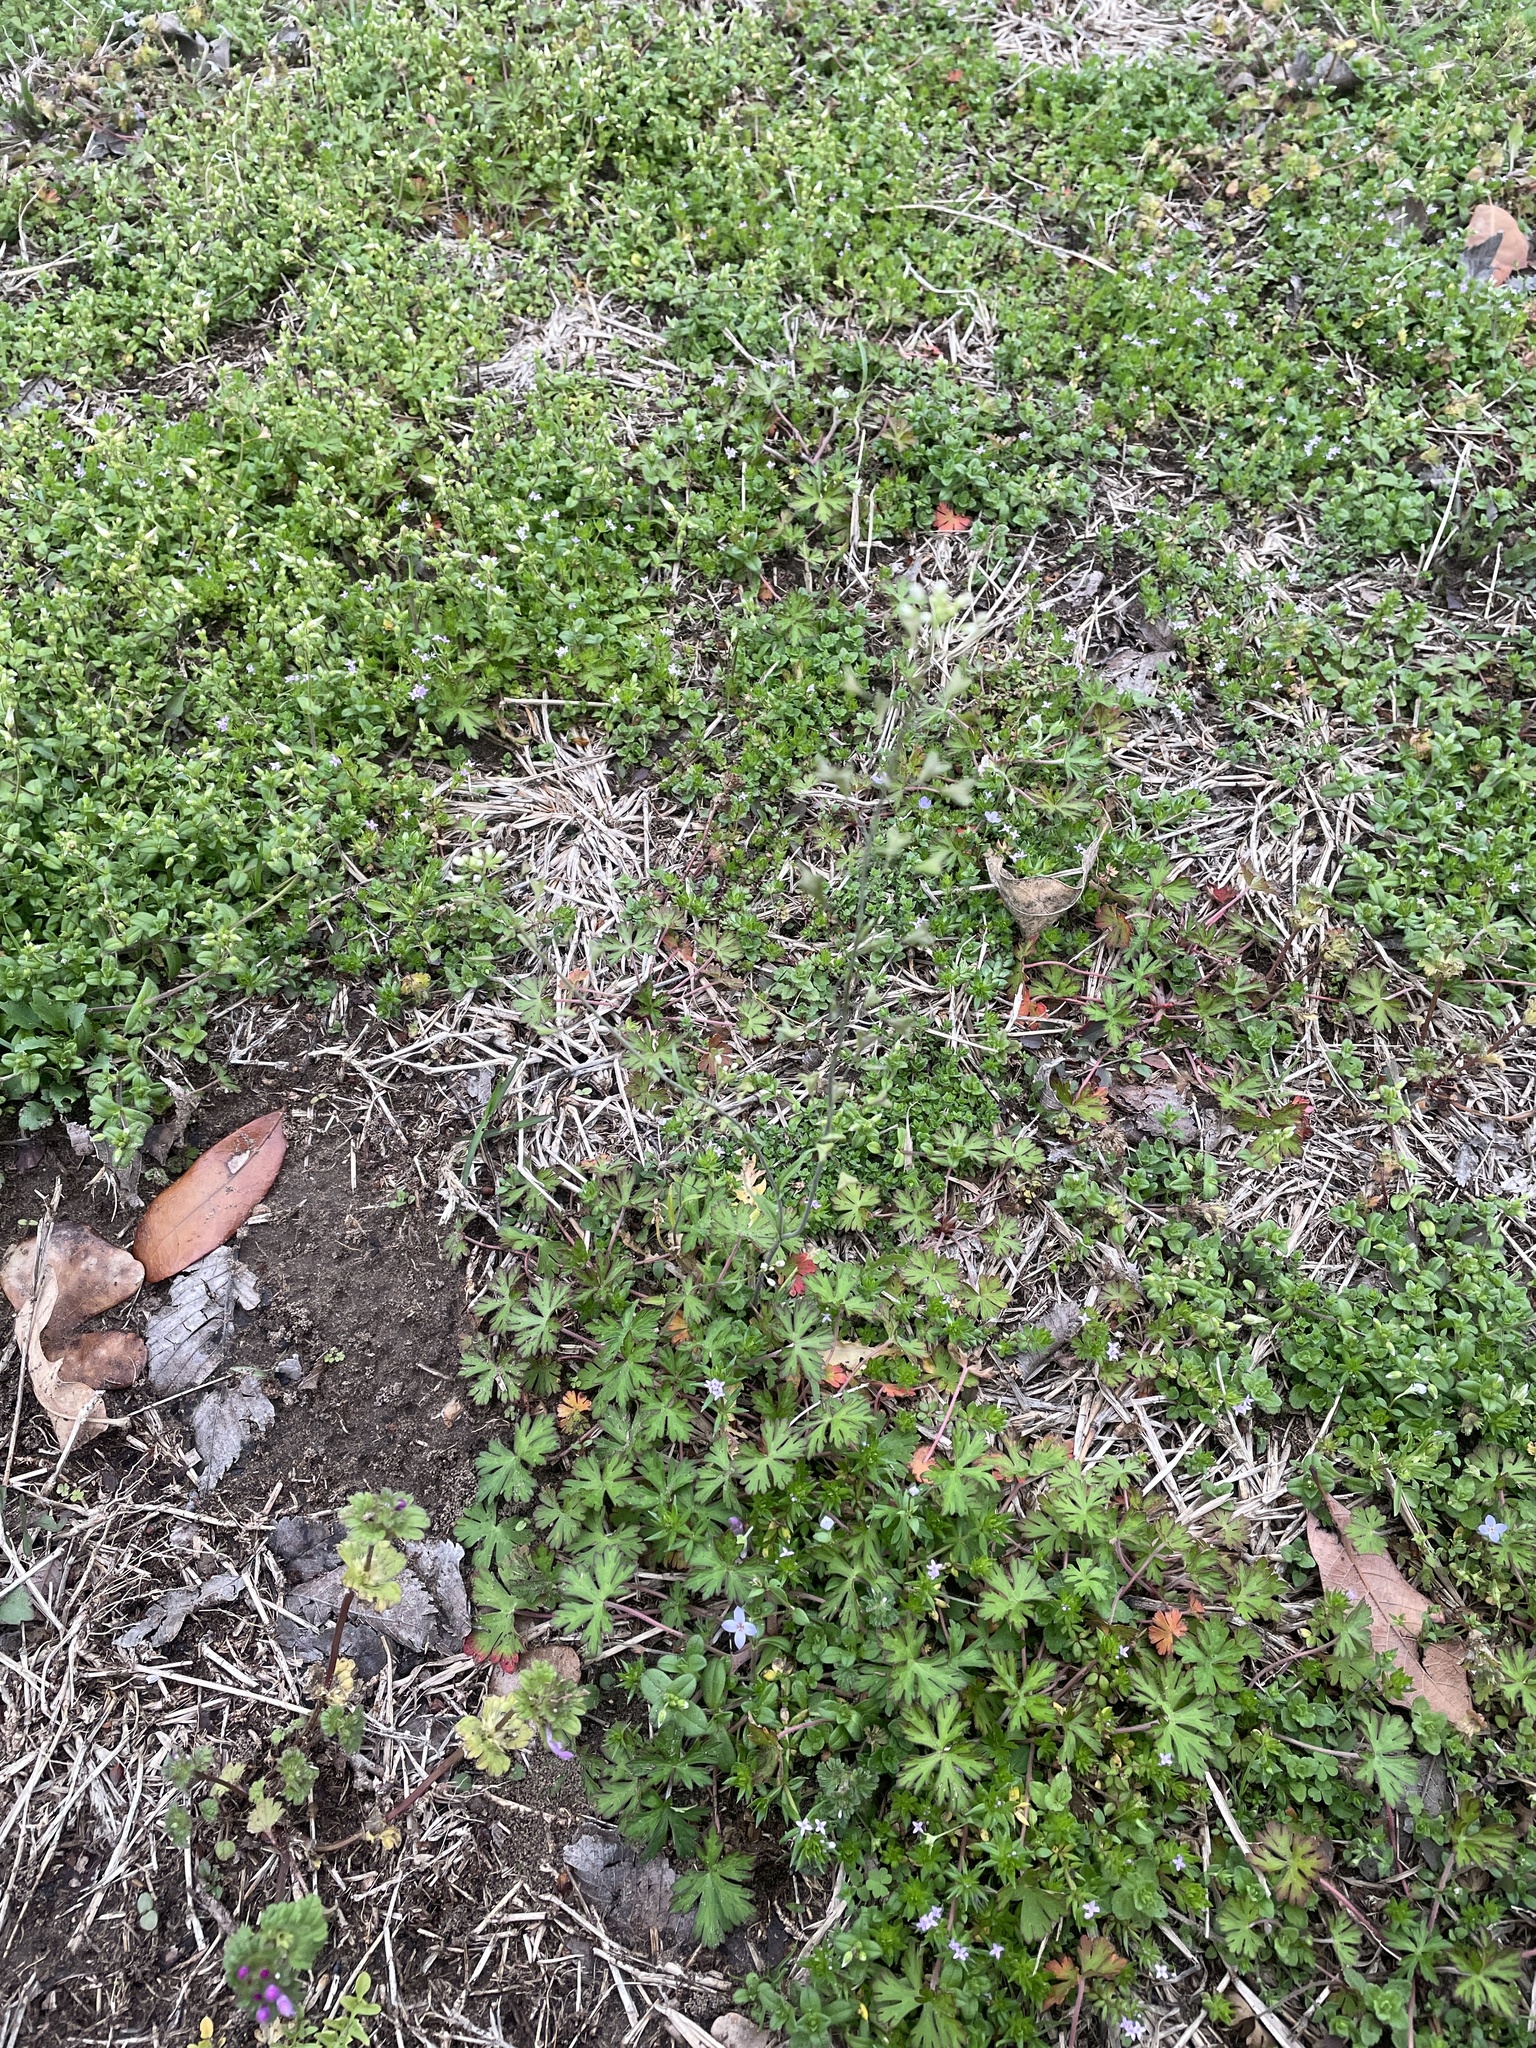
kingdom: Plantae
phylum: Tracheophyta
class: Magnoliopsida
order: Brassicales
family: Brassicaceae
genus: Capsella
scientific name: Capsella bursa-pastoris
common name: Shepherd's purse
